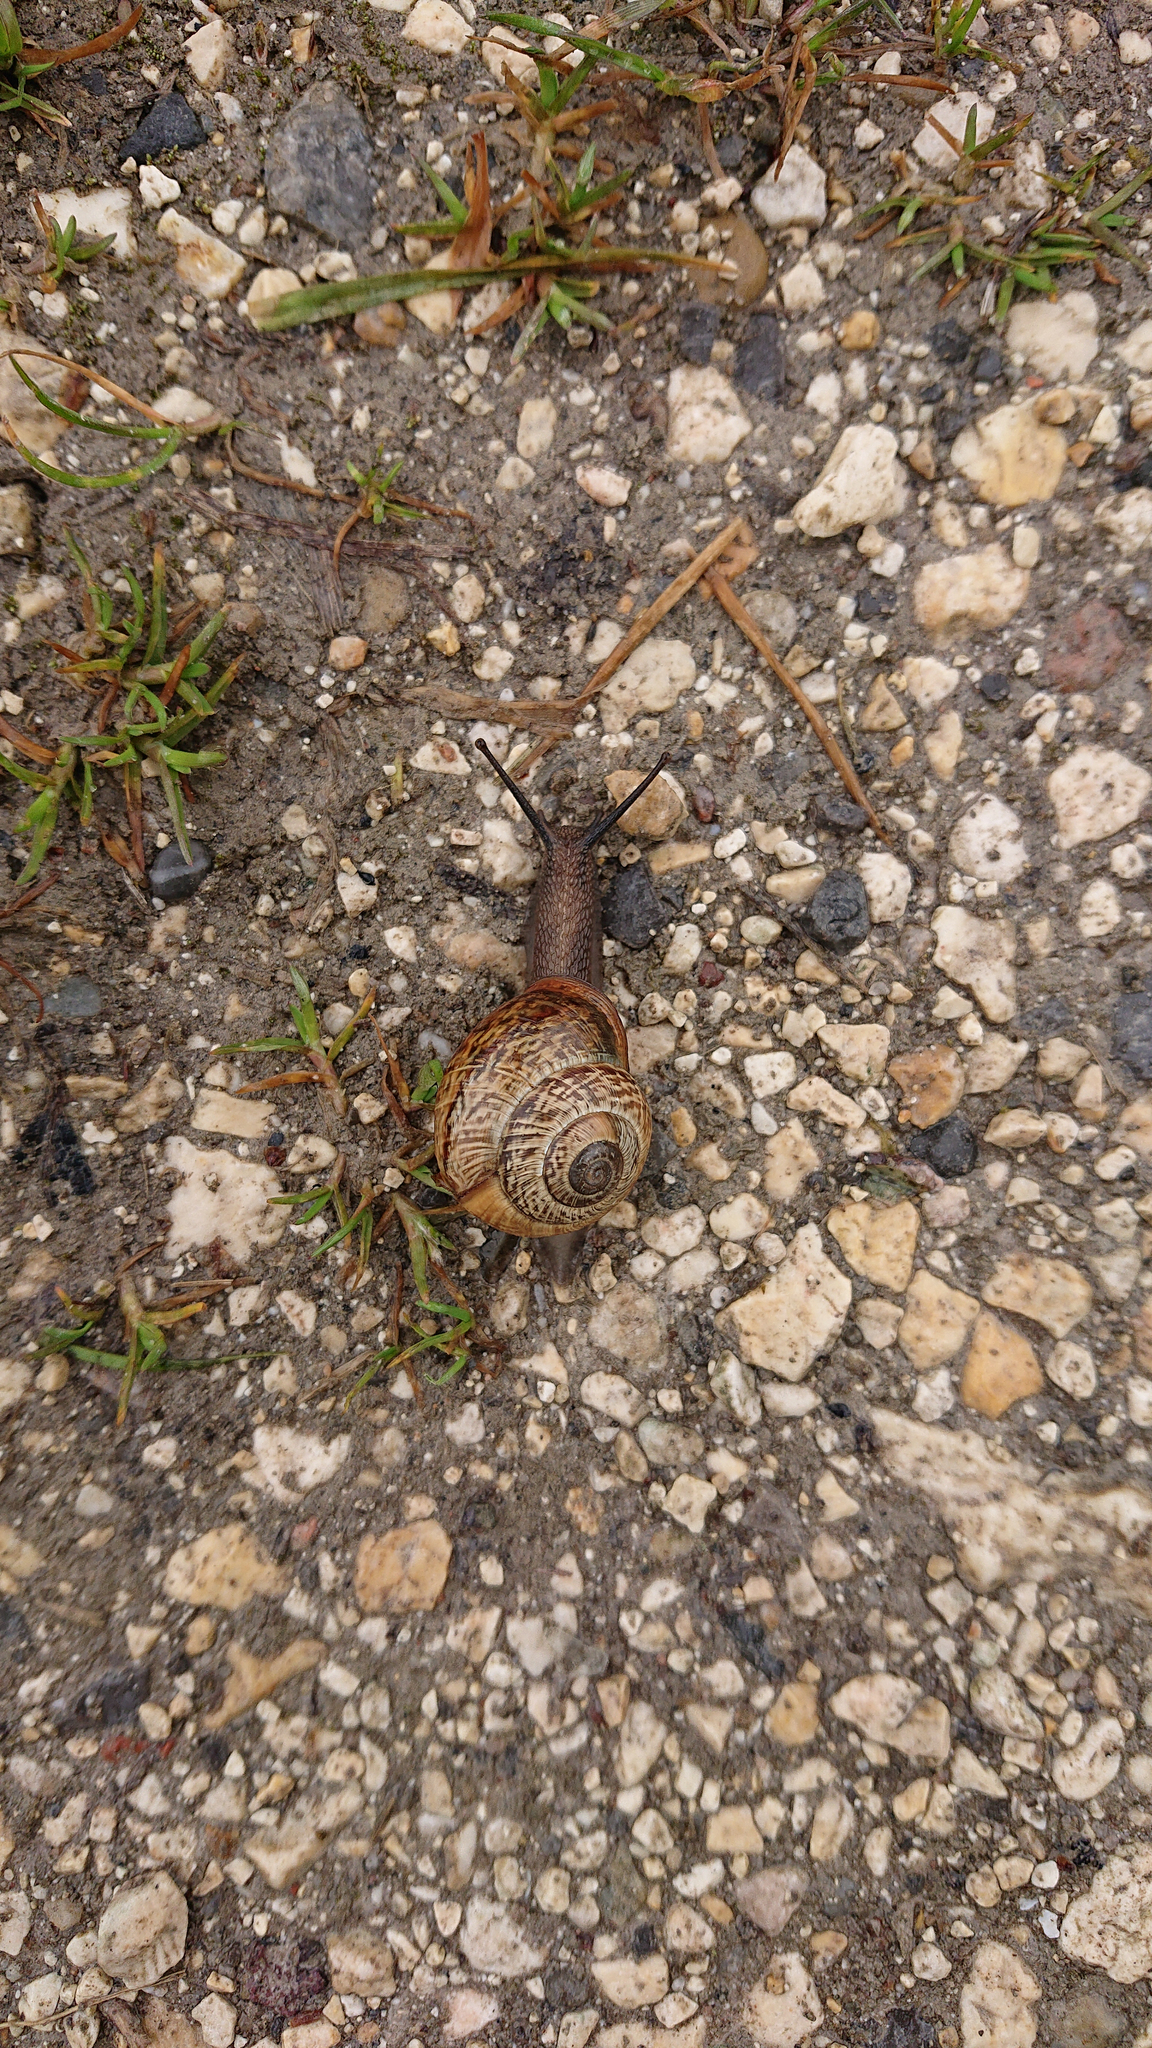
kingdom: Animalia
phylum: Mollusca
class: Gastropoda
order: Stylommatophora
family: Helicidae
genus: Arianta
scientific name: Arianta arbustorum
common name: Copse snail
